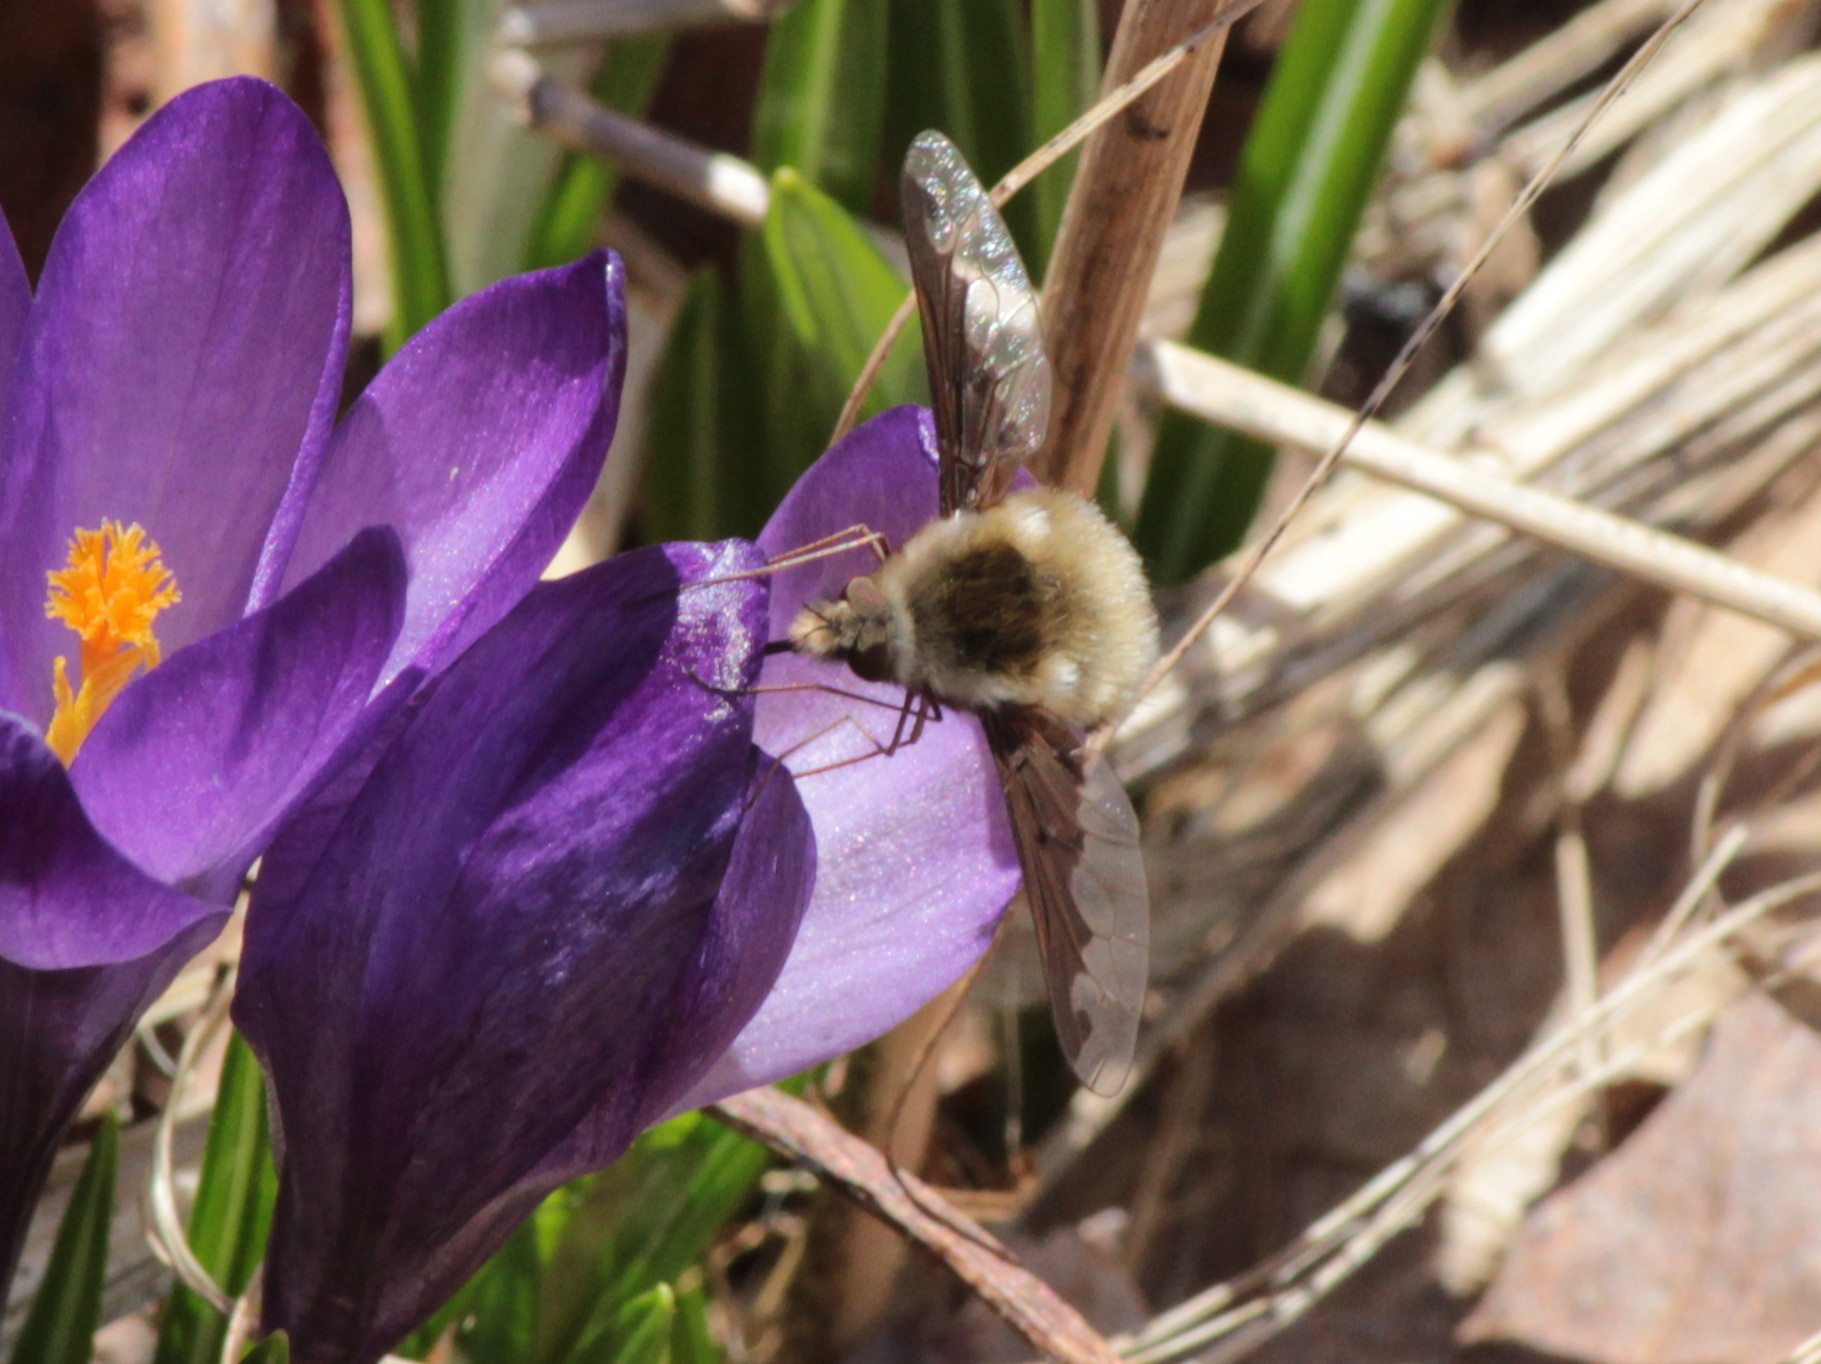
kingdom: Animalia
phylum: Arthropoda
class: Insecta
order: Diptera
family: Bombyliidae
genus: Bombylius
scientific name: Bombylius major
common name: Bee fly
